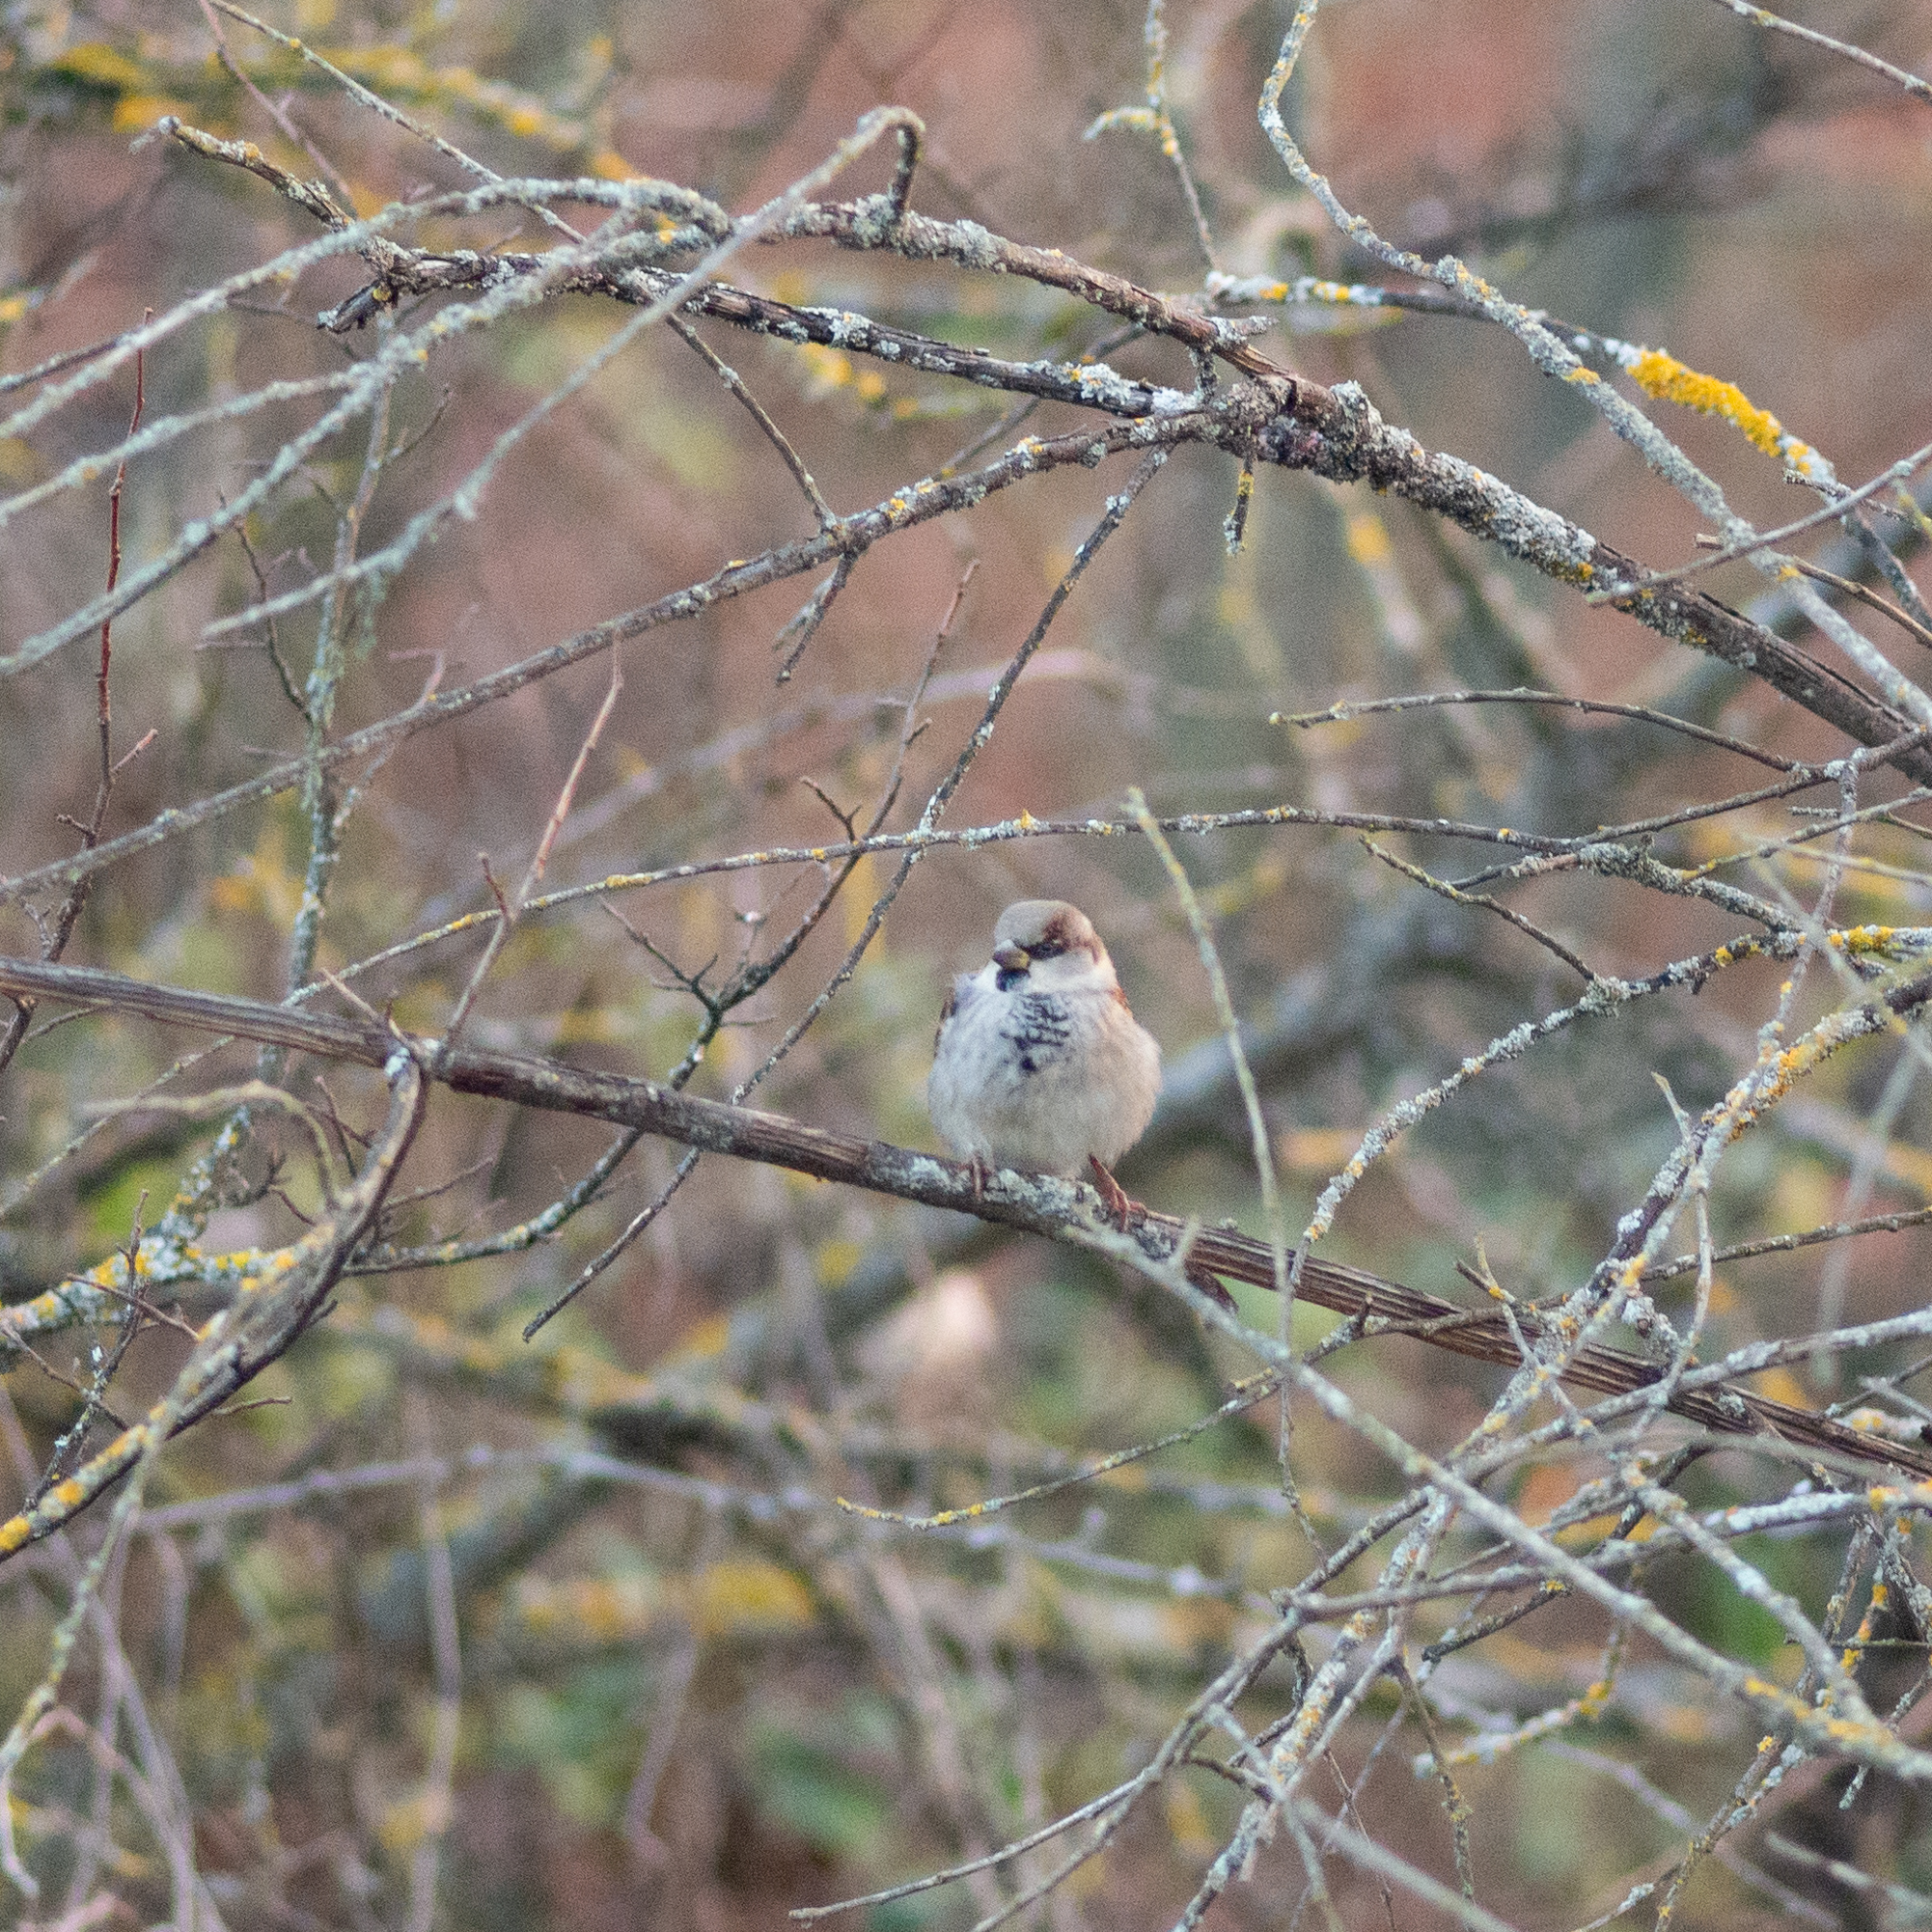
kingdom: Animalia
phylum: Chordata
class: Aves
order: Passeriformes
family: Passeridae
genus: Passer
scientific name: Passer domesticus
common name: House sparrow
